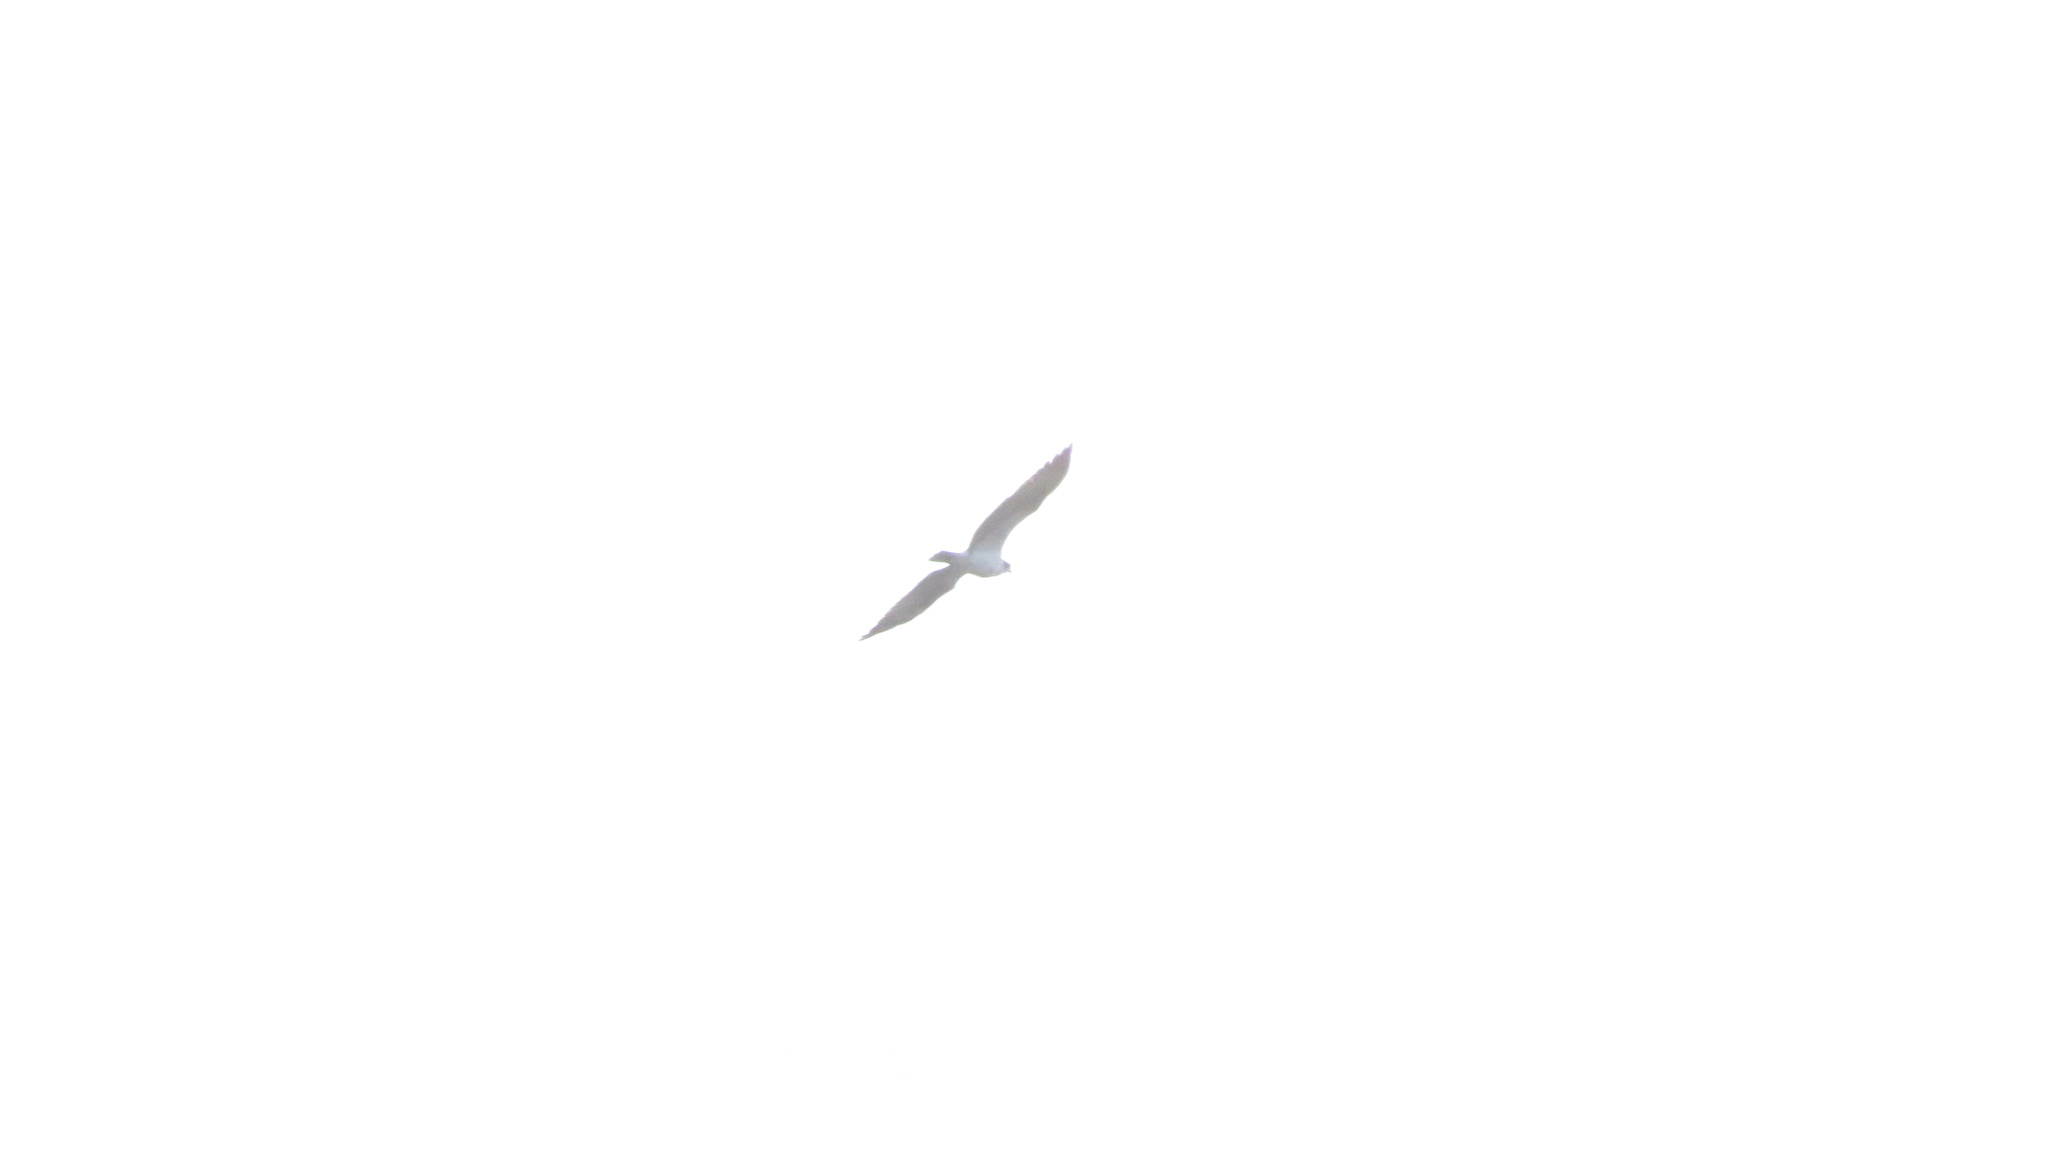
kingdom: Animalia
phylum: Chordata
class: Aves
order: Accipitriformes
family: Pandionidae
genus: Pandion
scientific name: Pandion haliaetus
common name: Osprey
